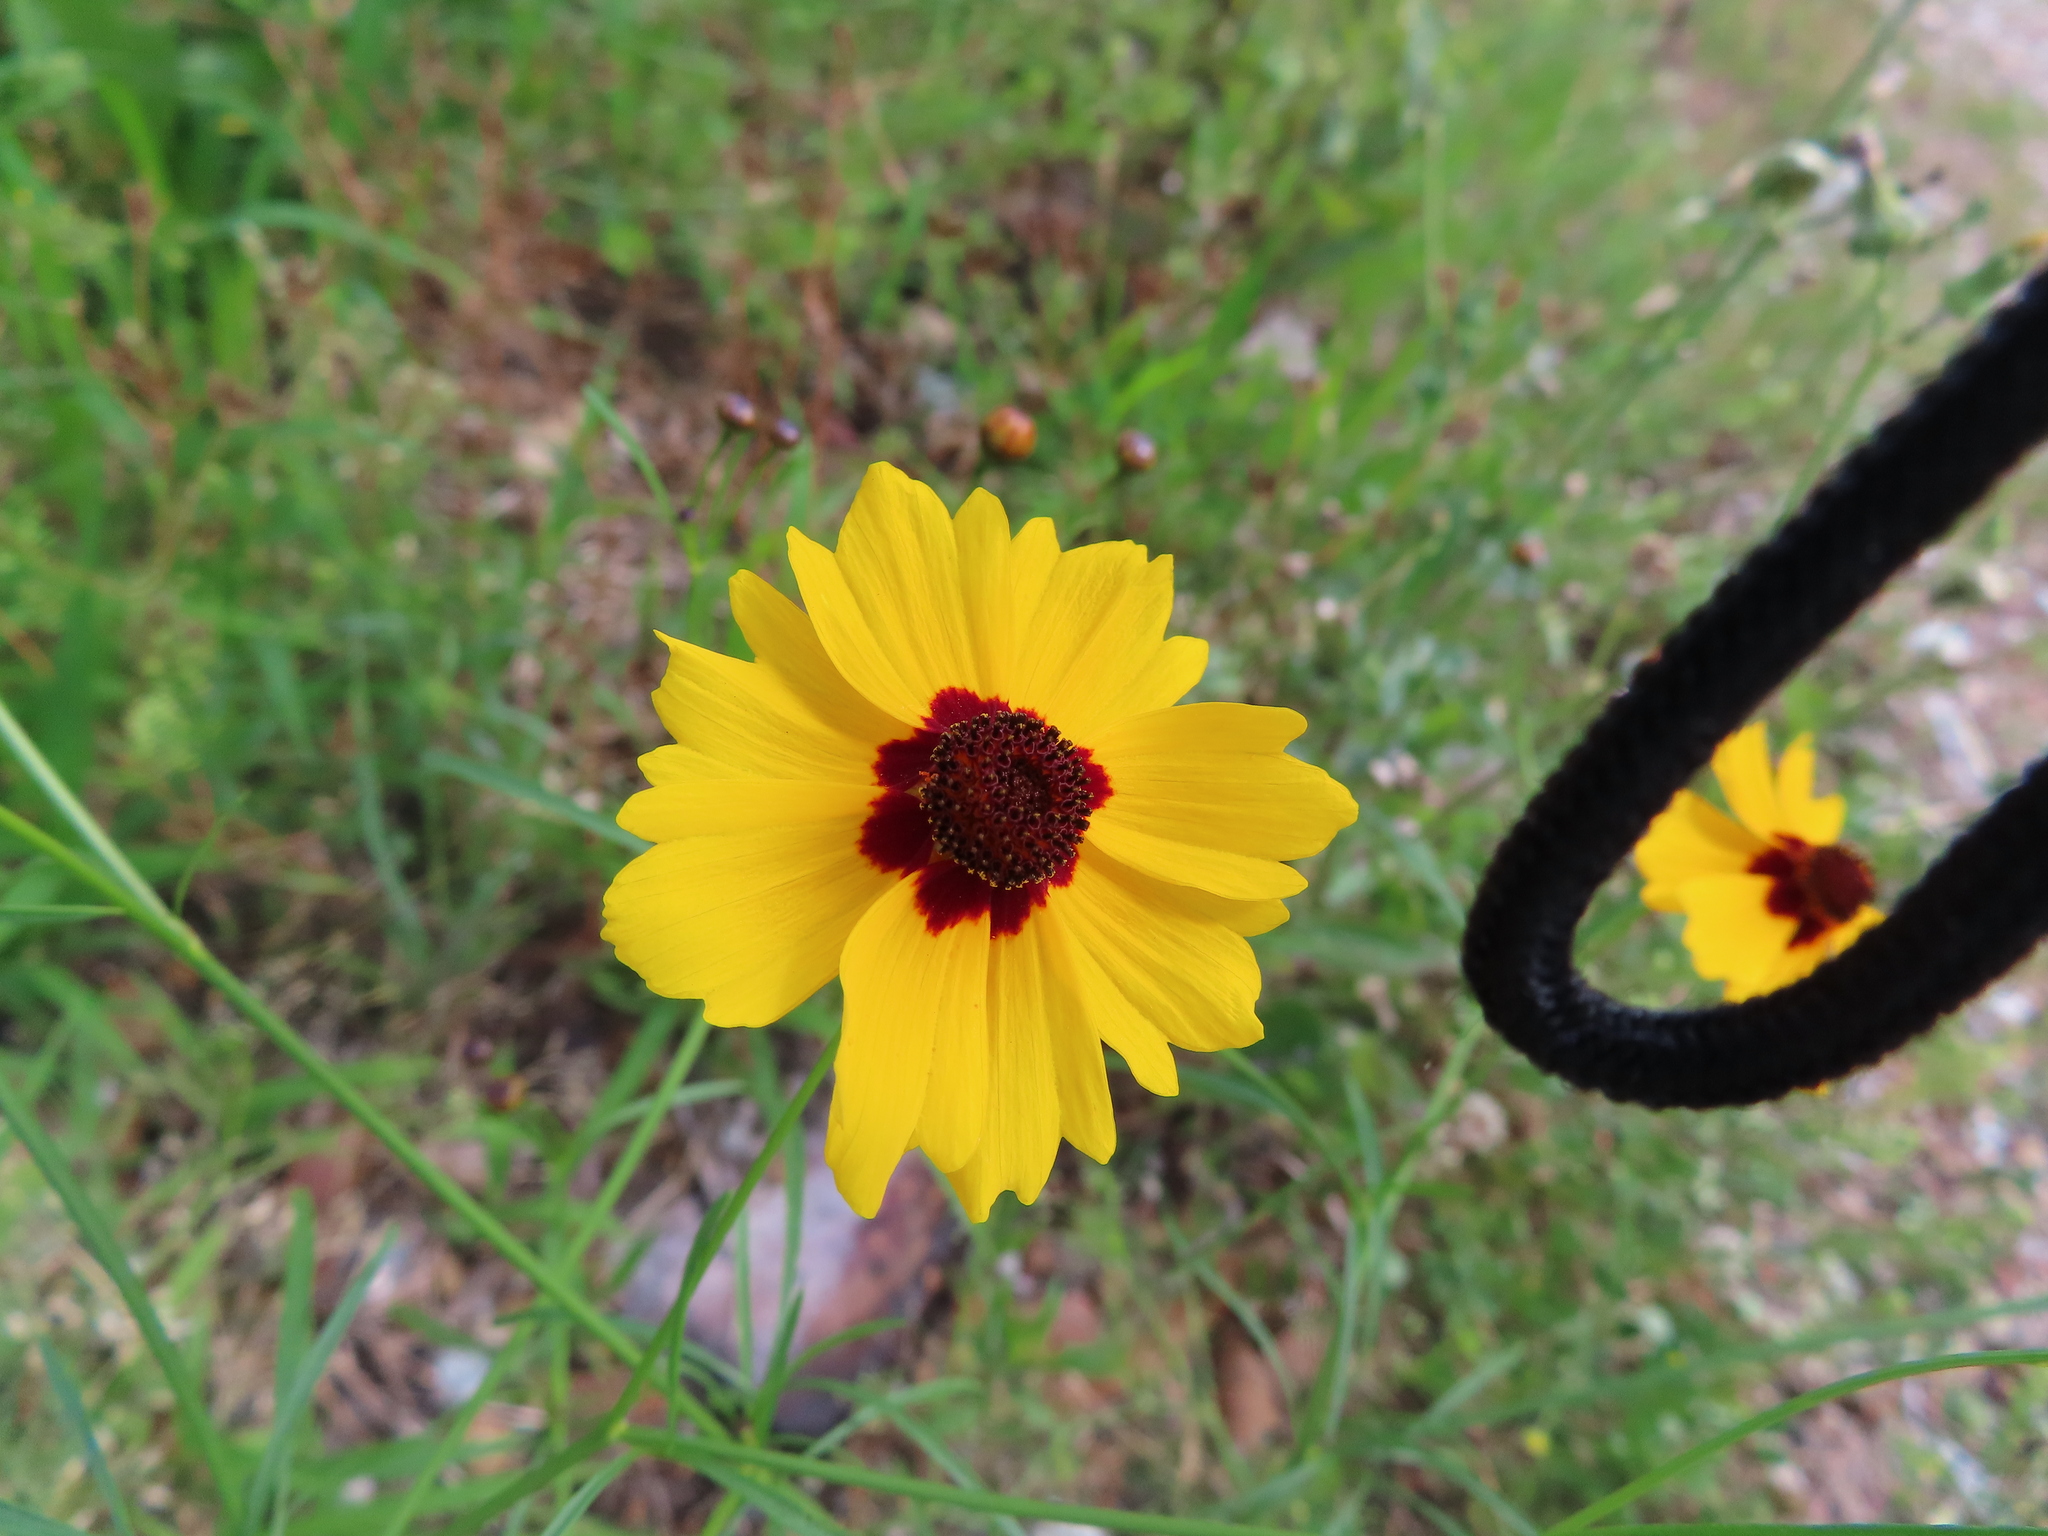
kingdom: Plantae
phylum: Tracheophyta
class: Magnoliopsida
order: Asterales
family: Asteraceae
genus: Coreopsis
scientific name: Coreopsis tinctoria
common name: Garden tickseed
